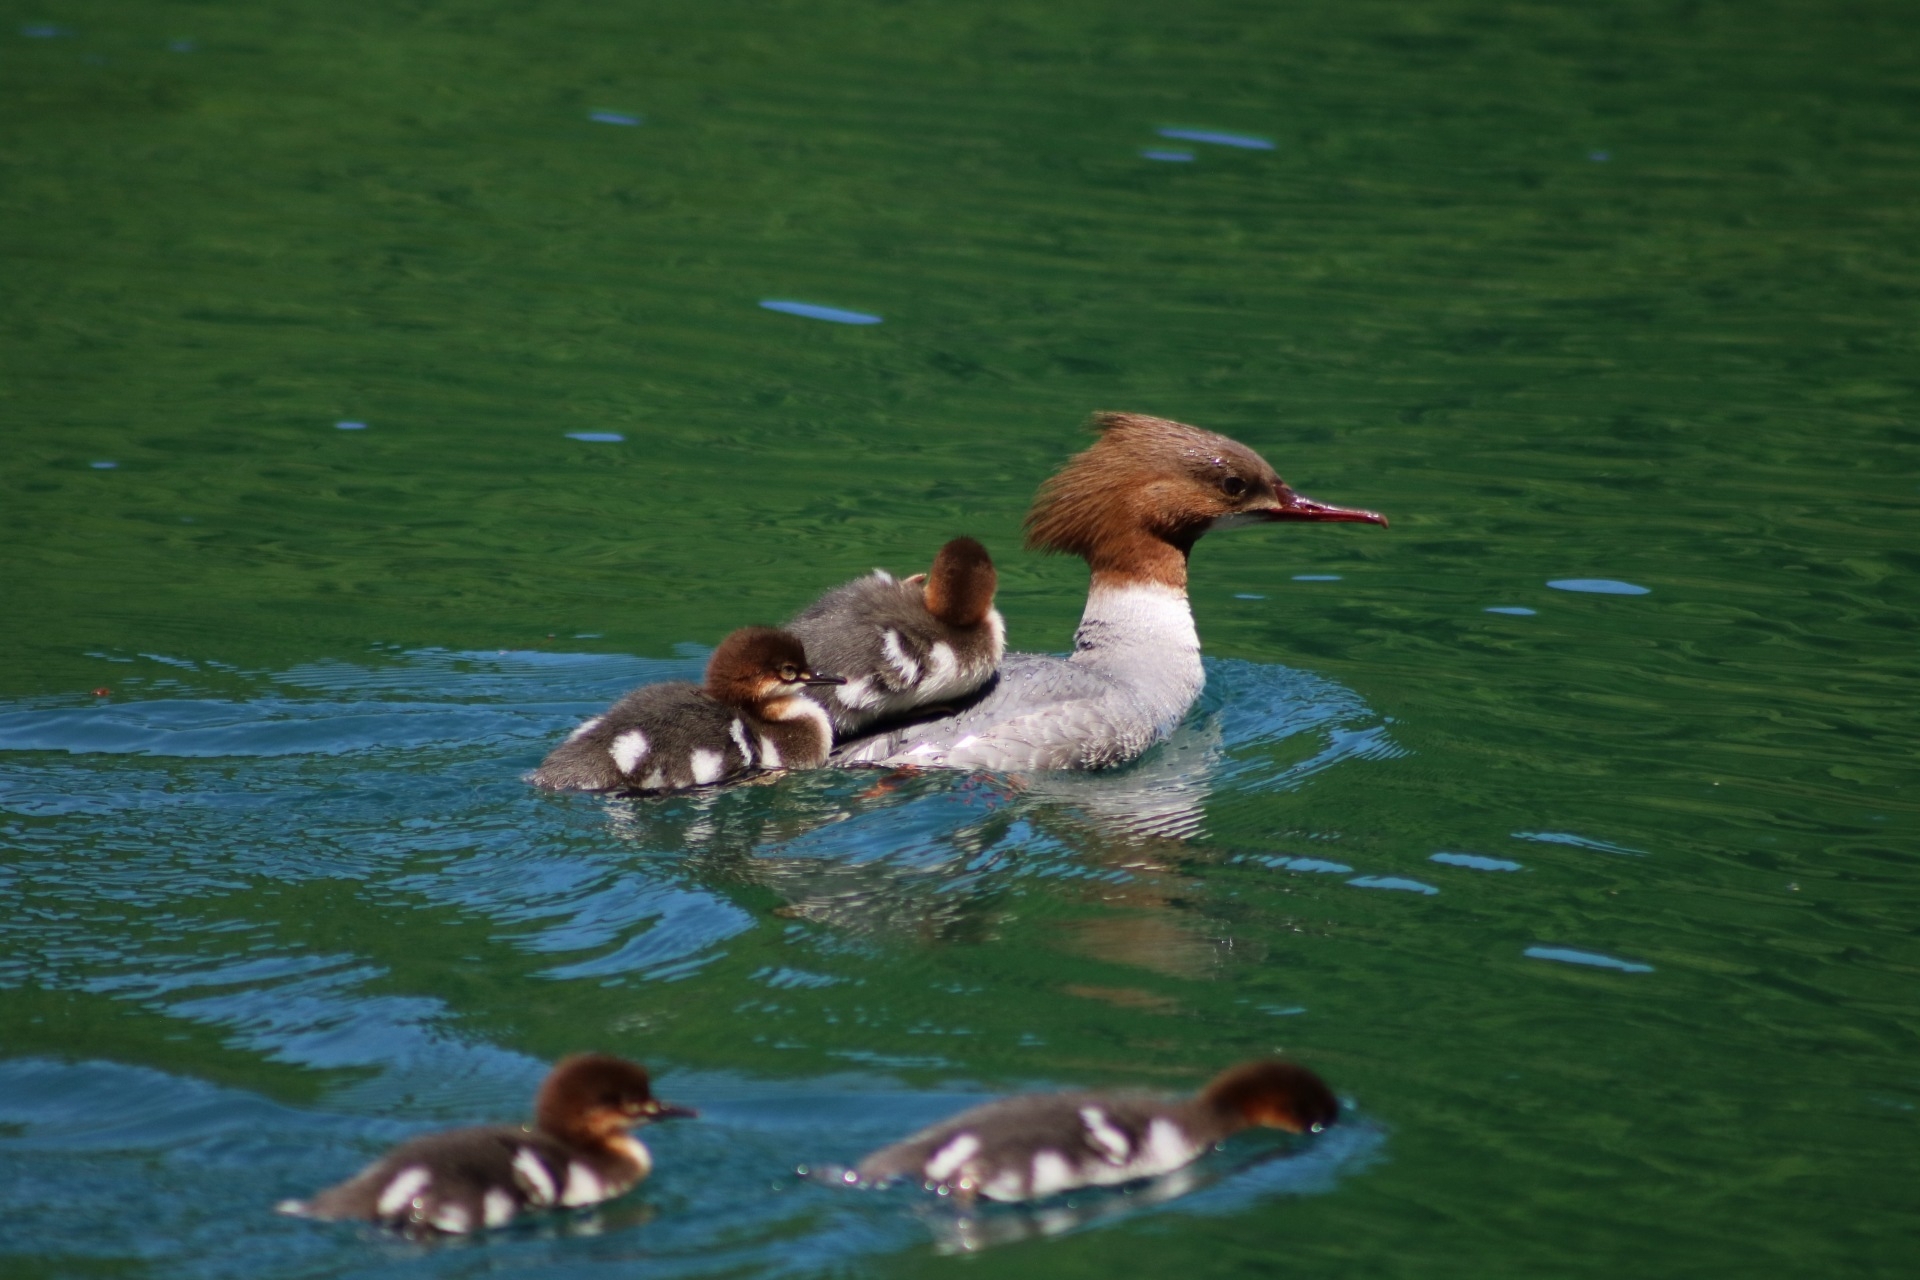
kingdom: Animalia
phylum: Chordata
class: Aves
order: Anseriformes
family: Anatidae
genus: Mergus
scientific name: Mergus merganser
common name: Common merganser
